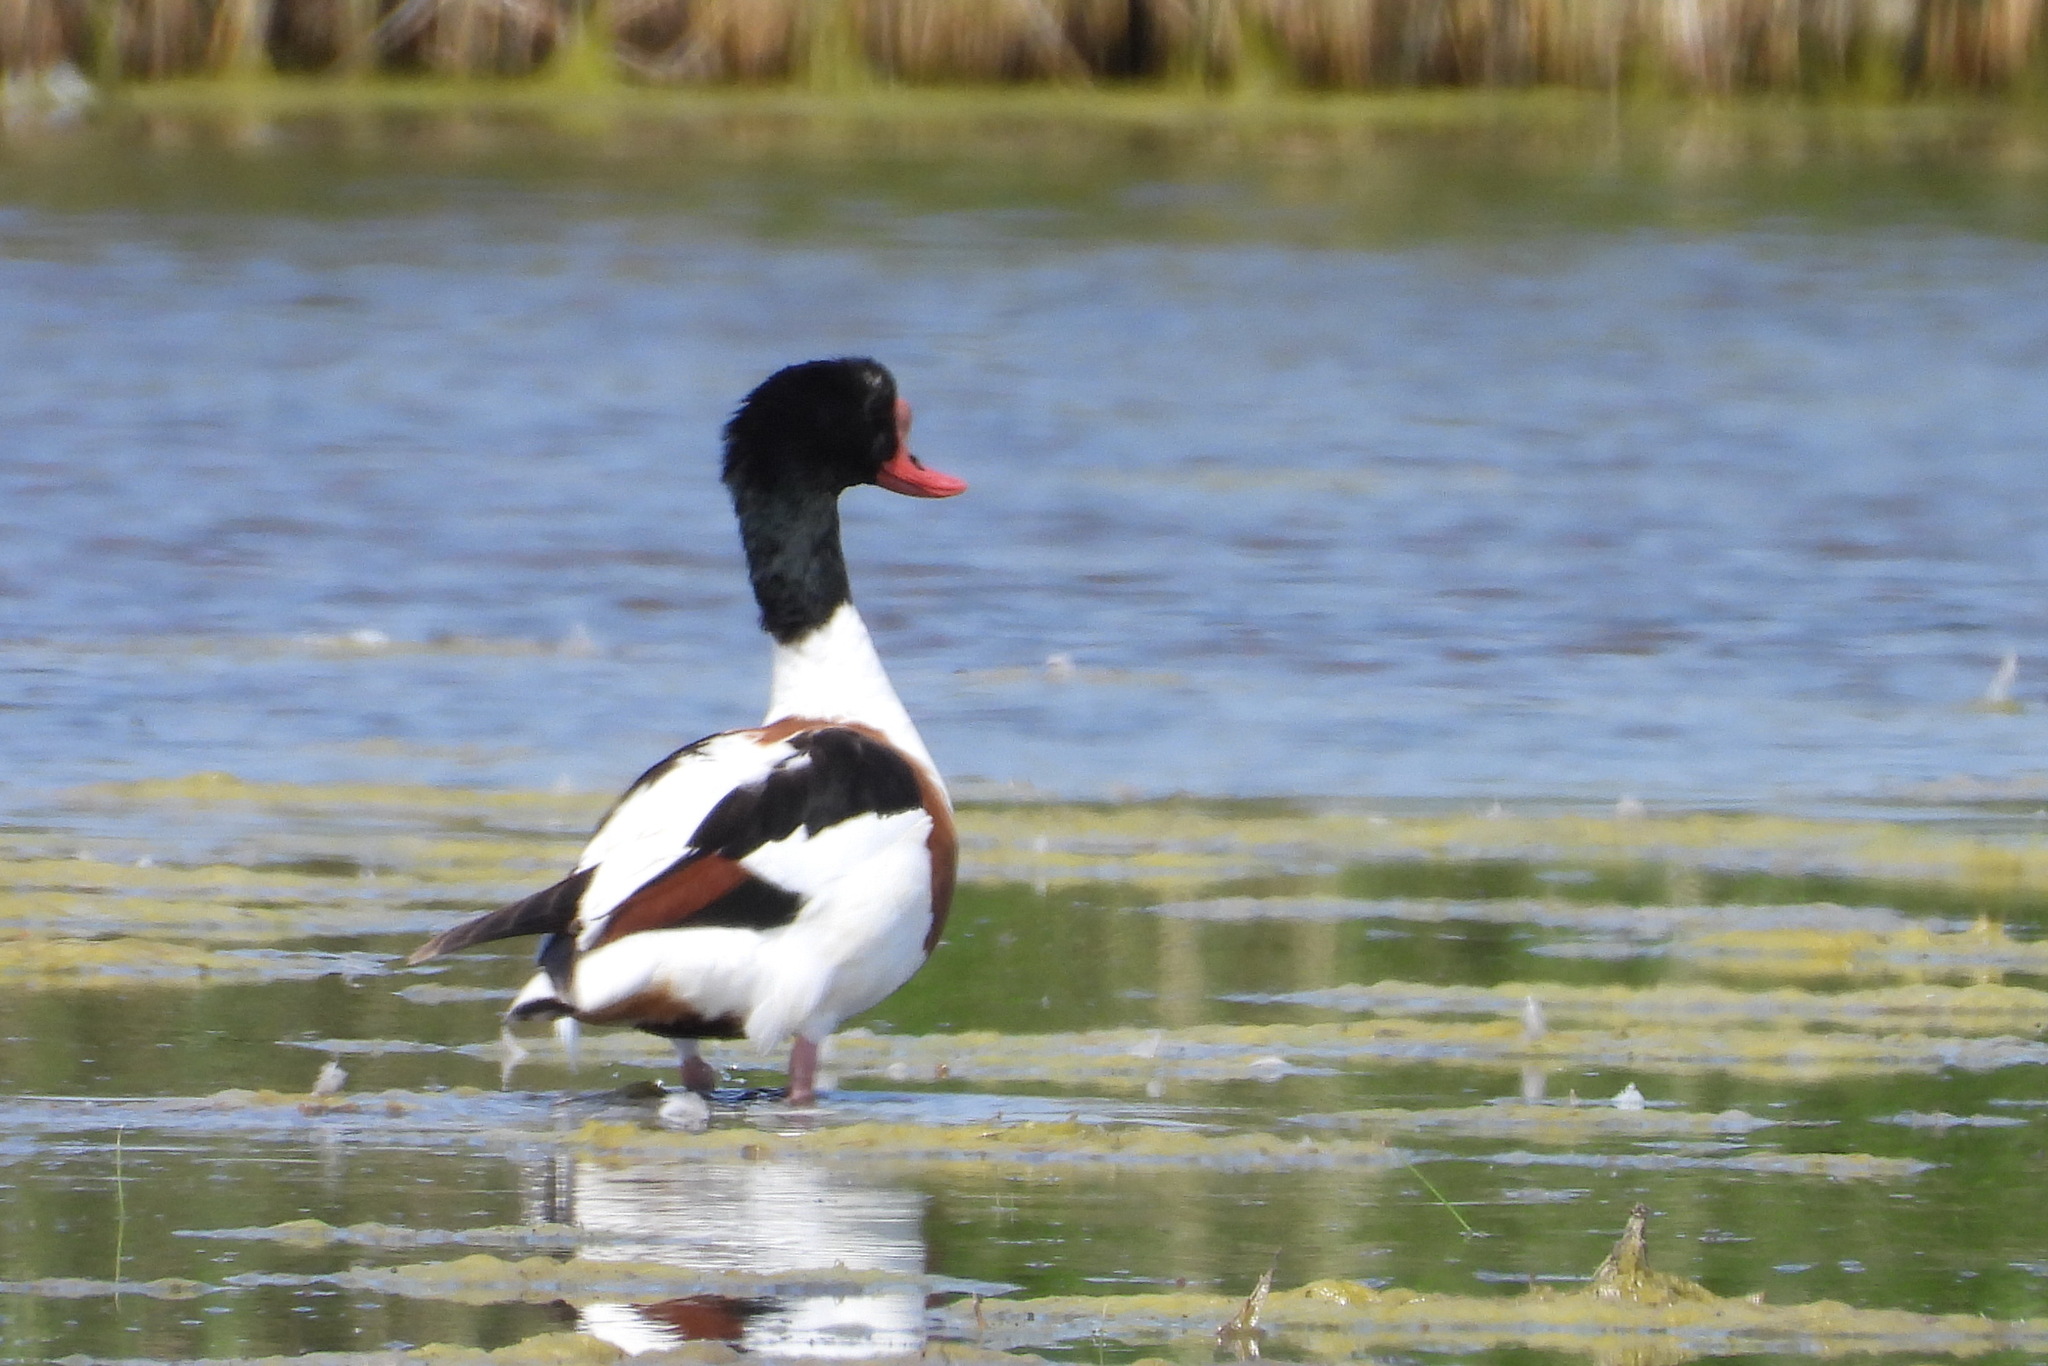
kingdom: Animalia
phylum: Chordata
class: Aves
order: Anseriformes
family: Anatidae
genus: Tadorna
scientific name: Tadorna tadorna
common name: Common shelduck
